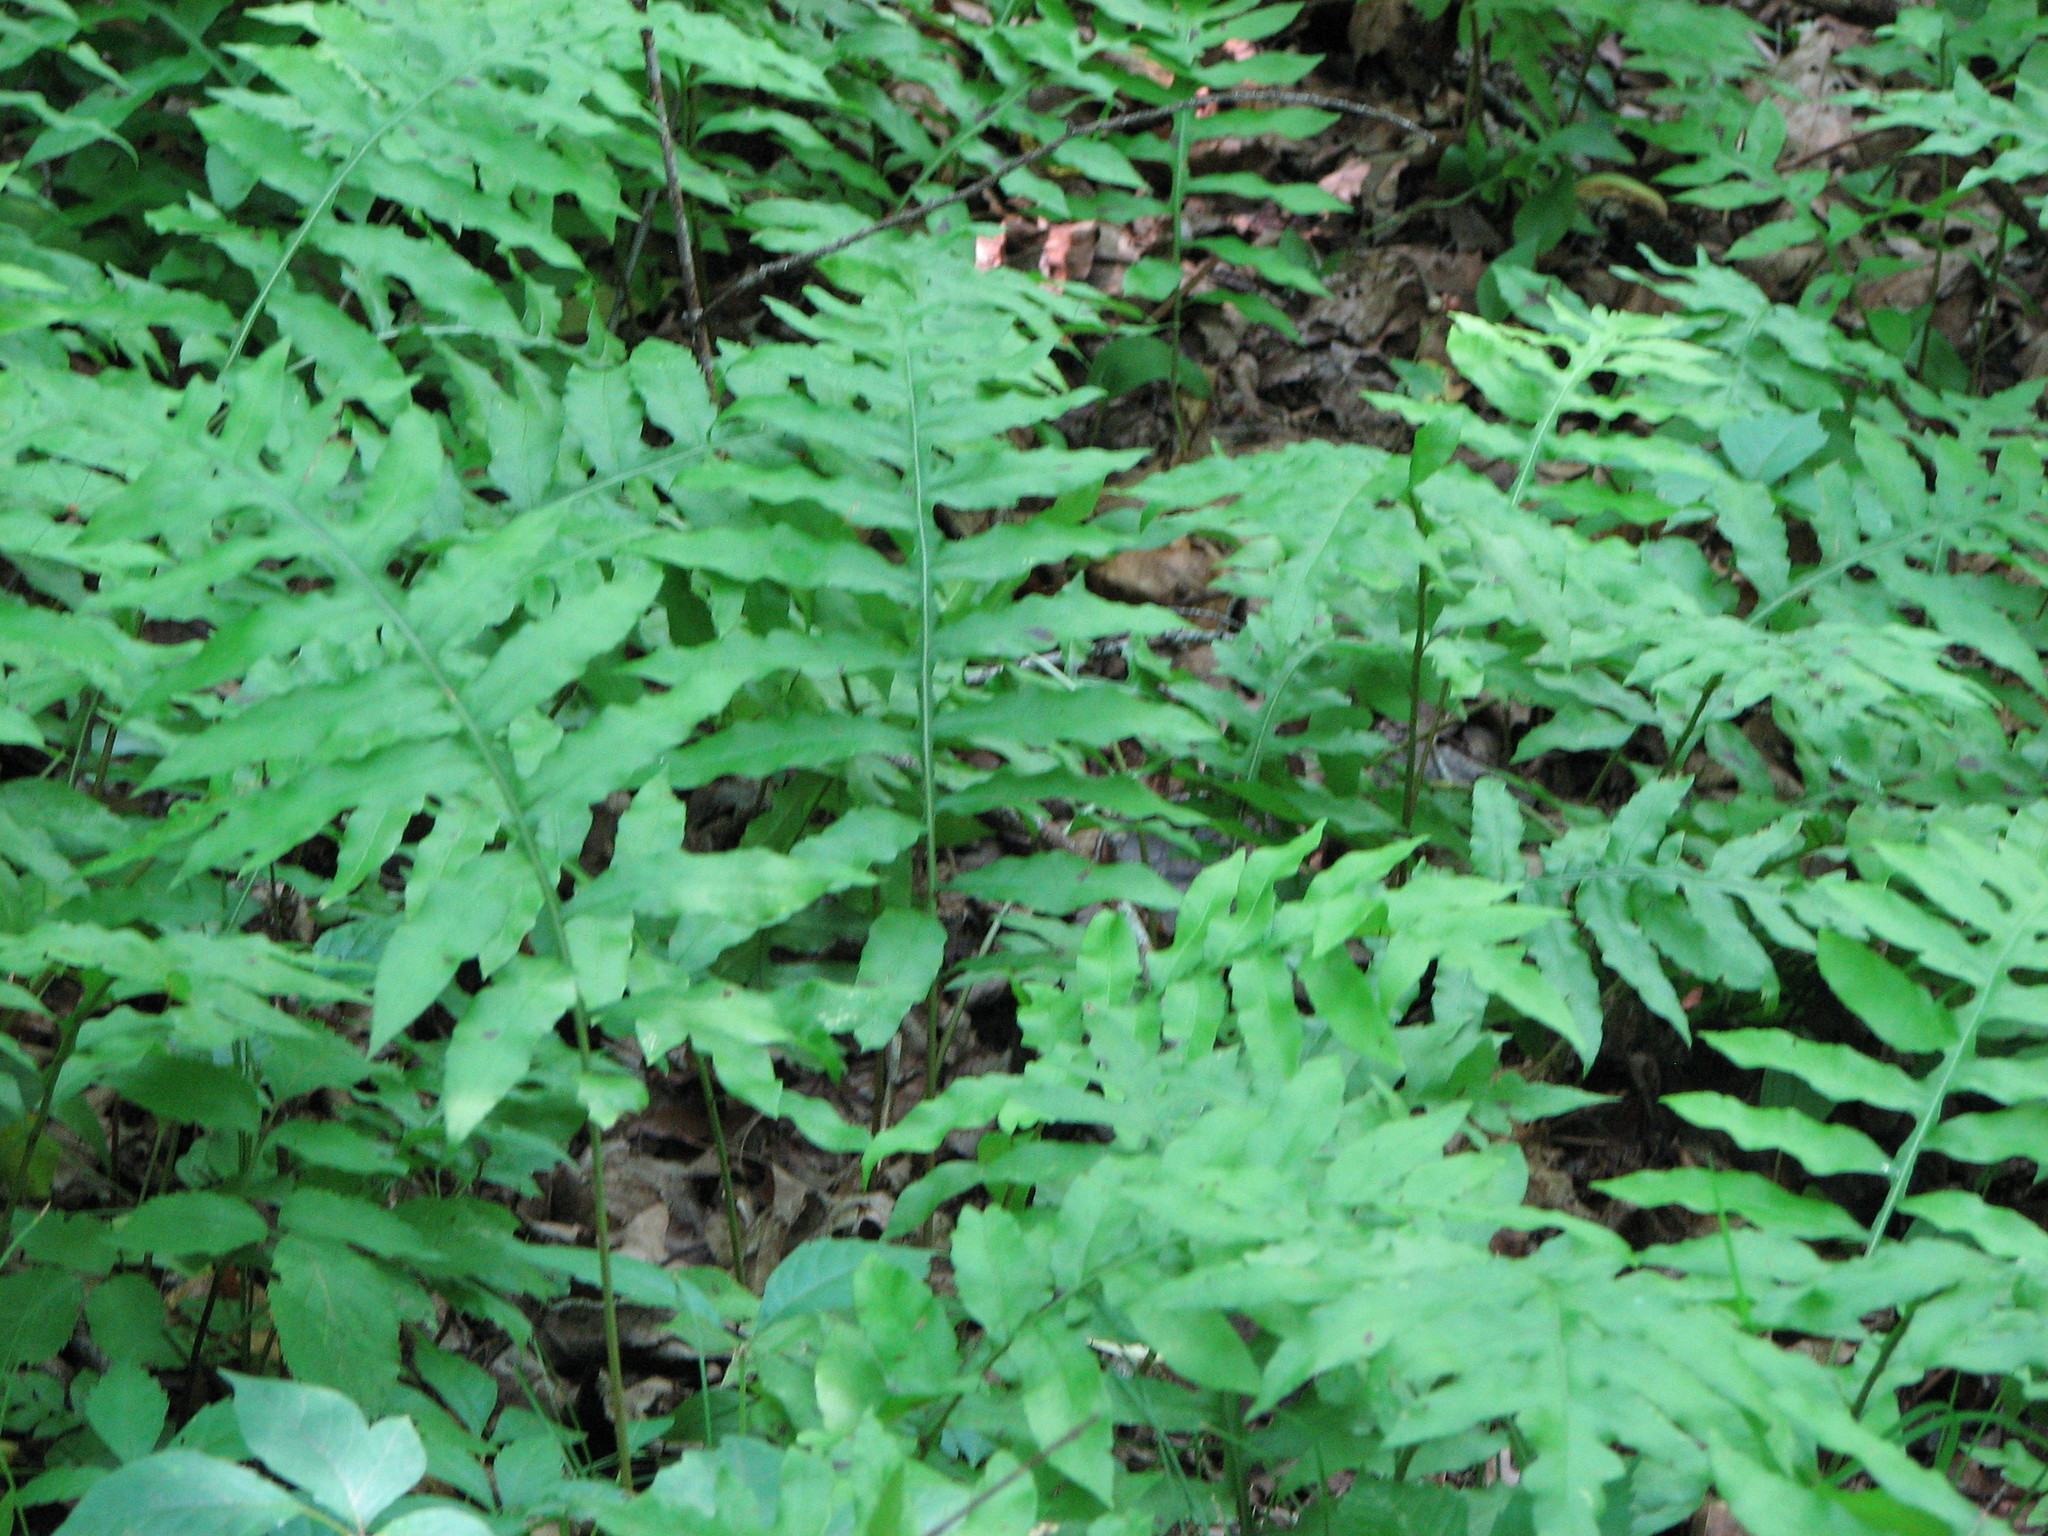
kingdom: Plantae
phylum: Tracheophyta
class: Polypodiopsida
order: Polypodiales
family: Blechnaceae
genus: Lorinseria
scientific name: Lorinseria areolata
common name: Dwarf chain fern
